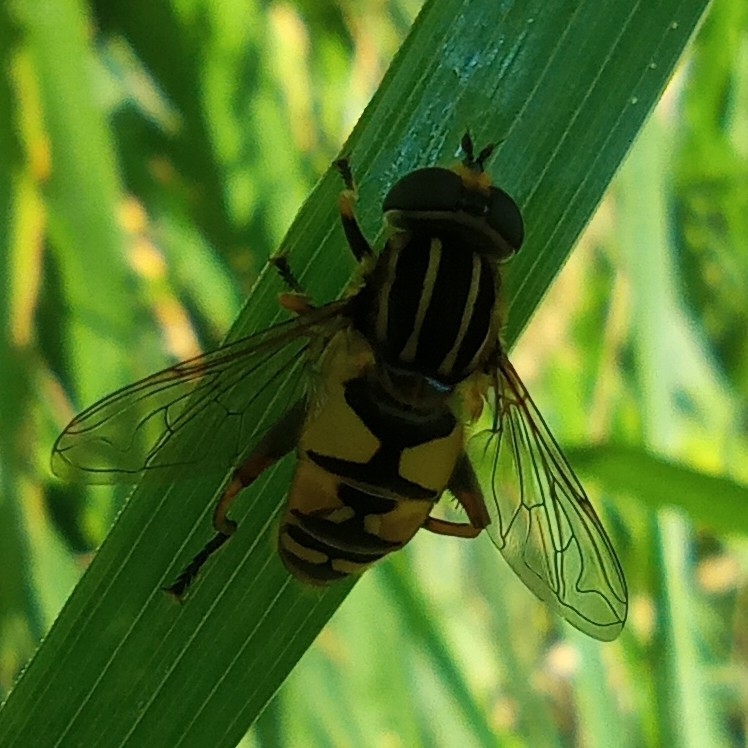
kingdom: Animalia
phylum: Arthropoda
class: Insecta
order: Diptera
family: Syrphidae
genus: Helophilus
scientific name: Helophilus pendulus
